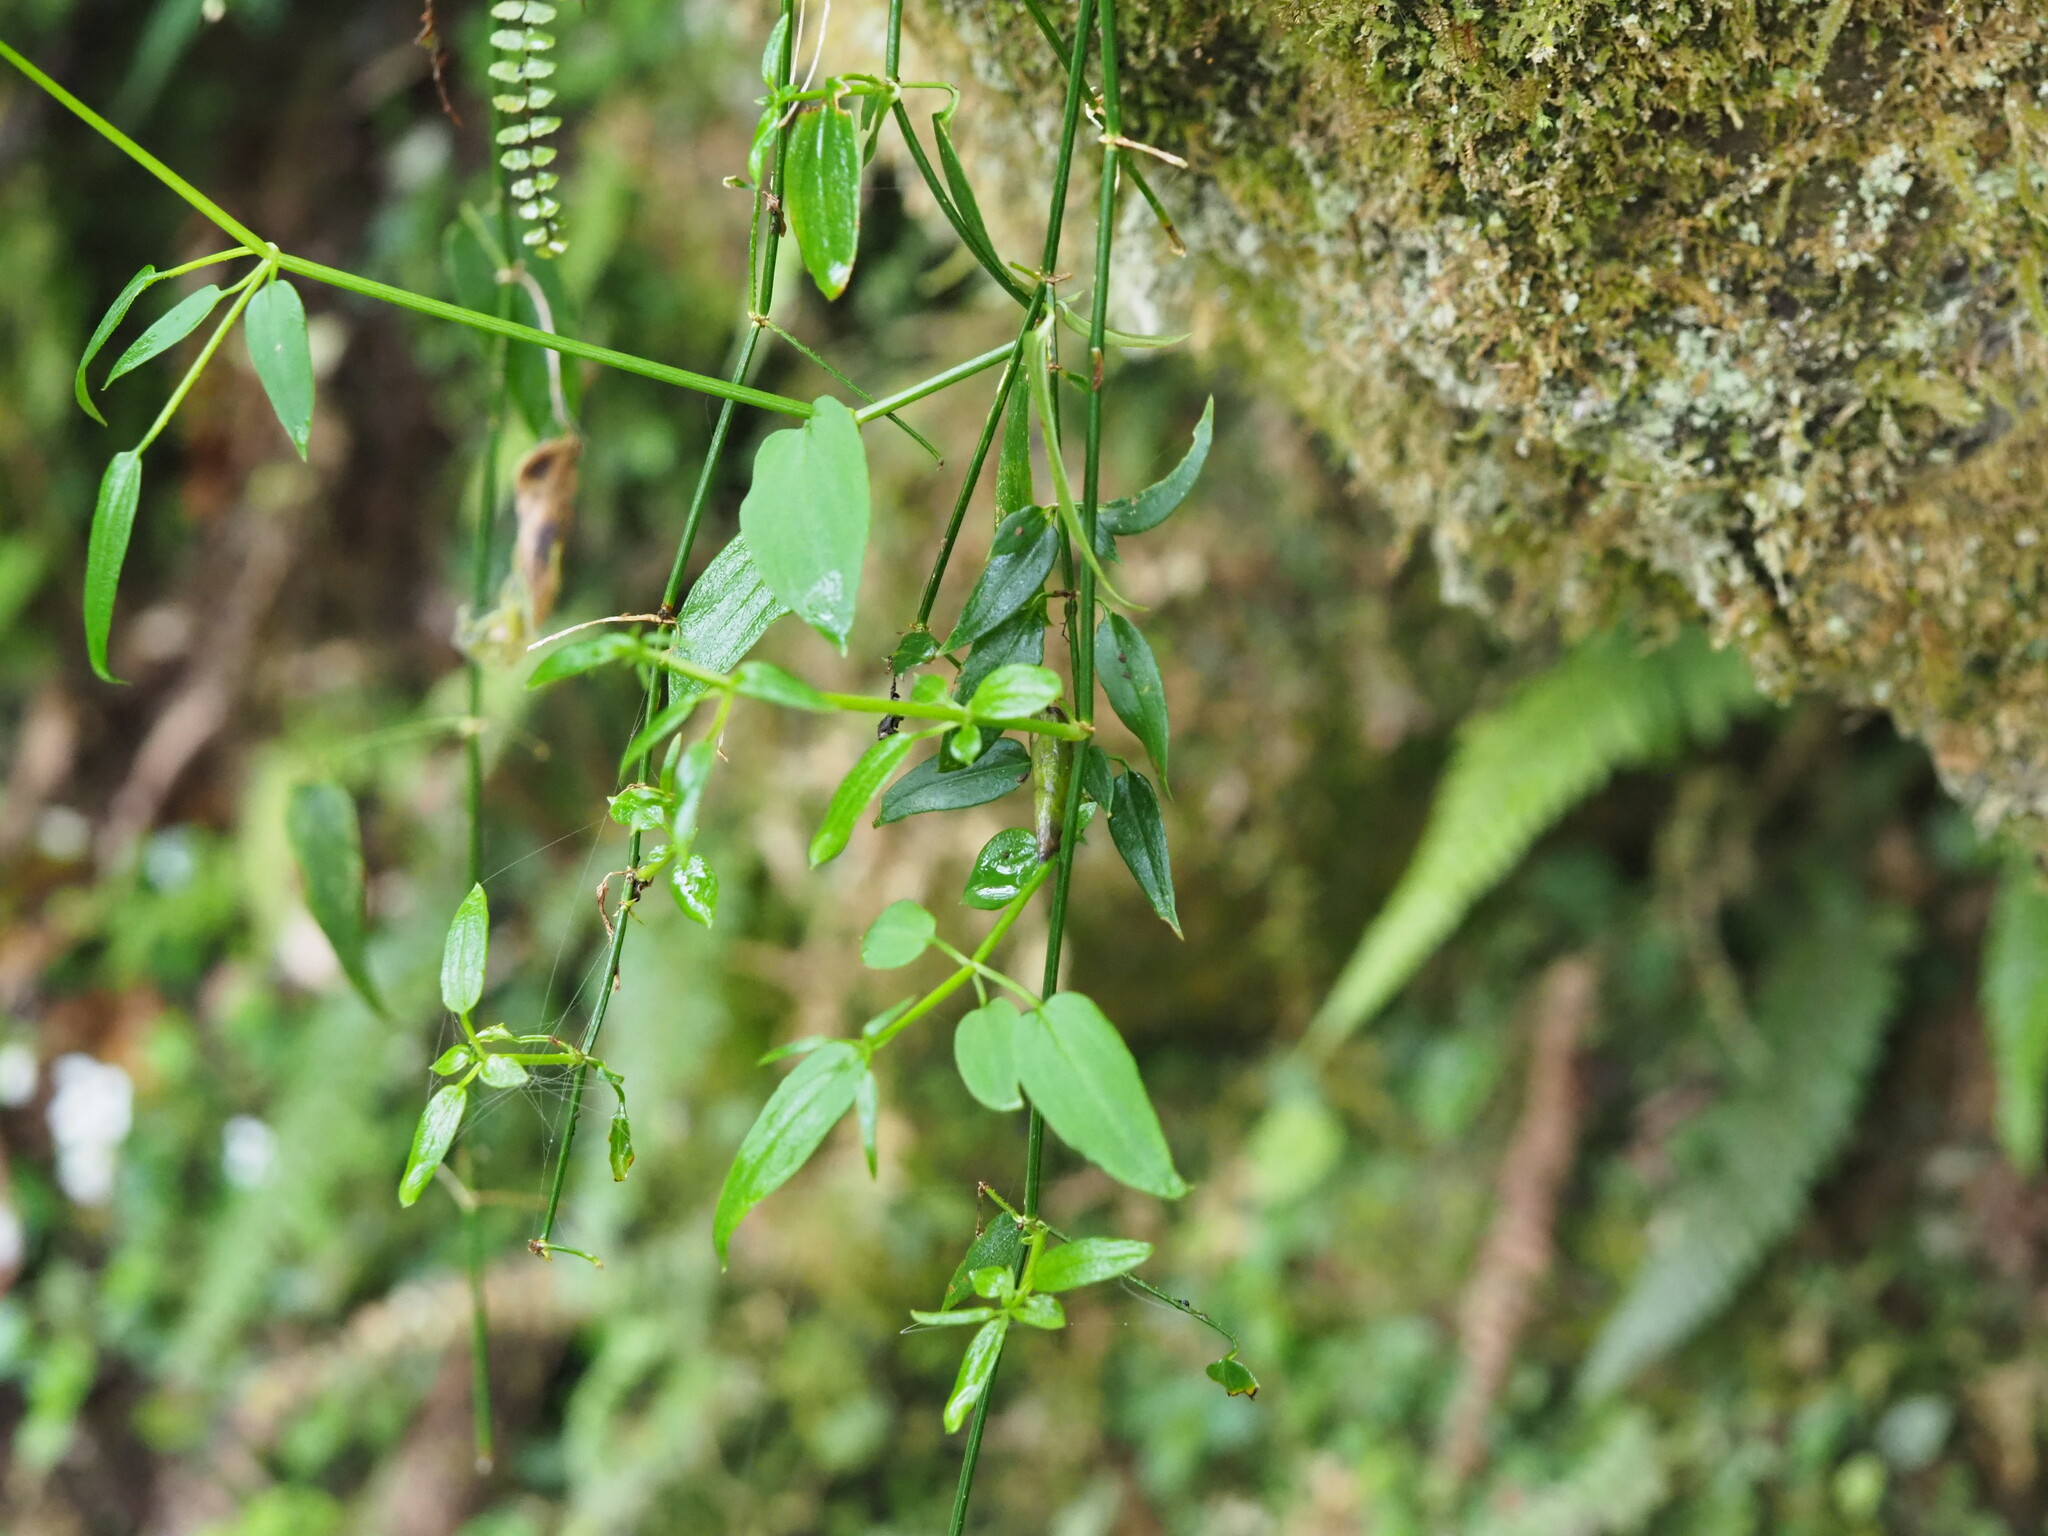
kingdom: Plantae
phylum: Tracheophyta
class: Magnoliopsida
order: Gentianales
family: Rubiaceae
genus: Rubia
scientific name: Rubia linii
